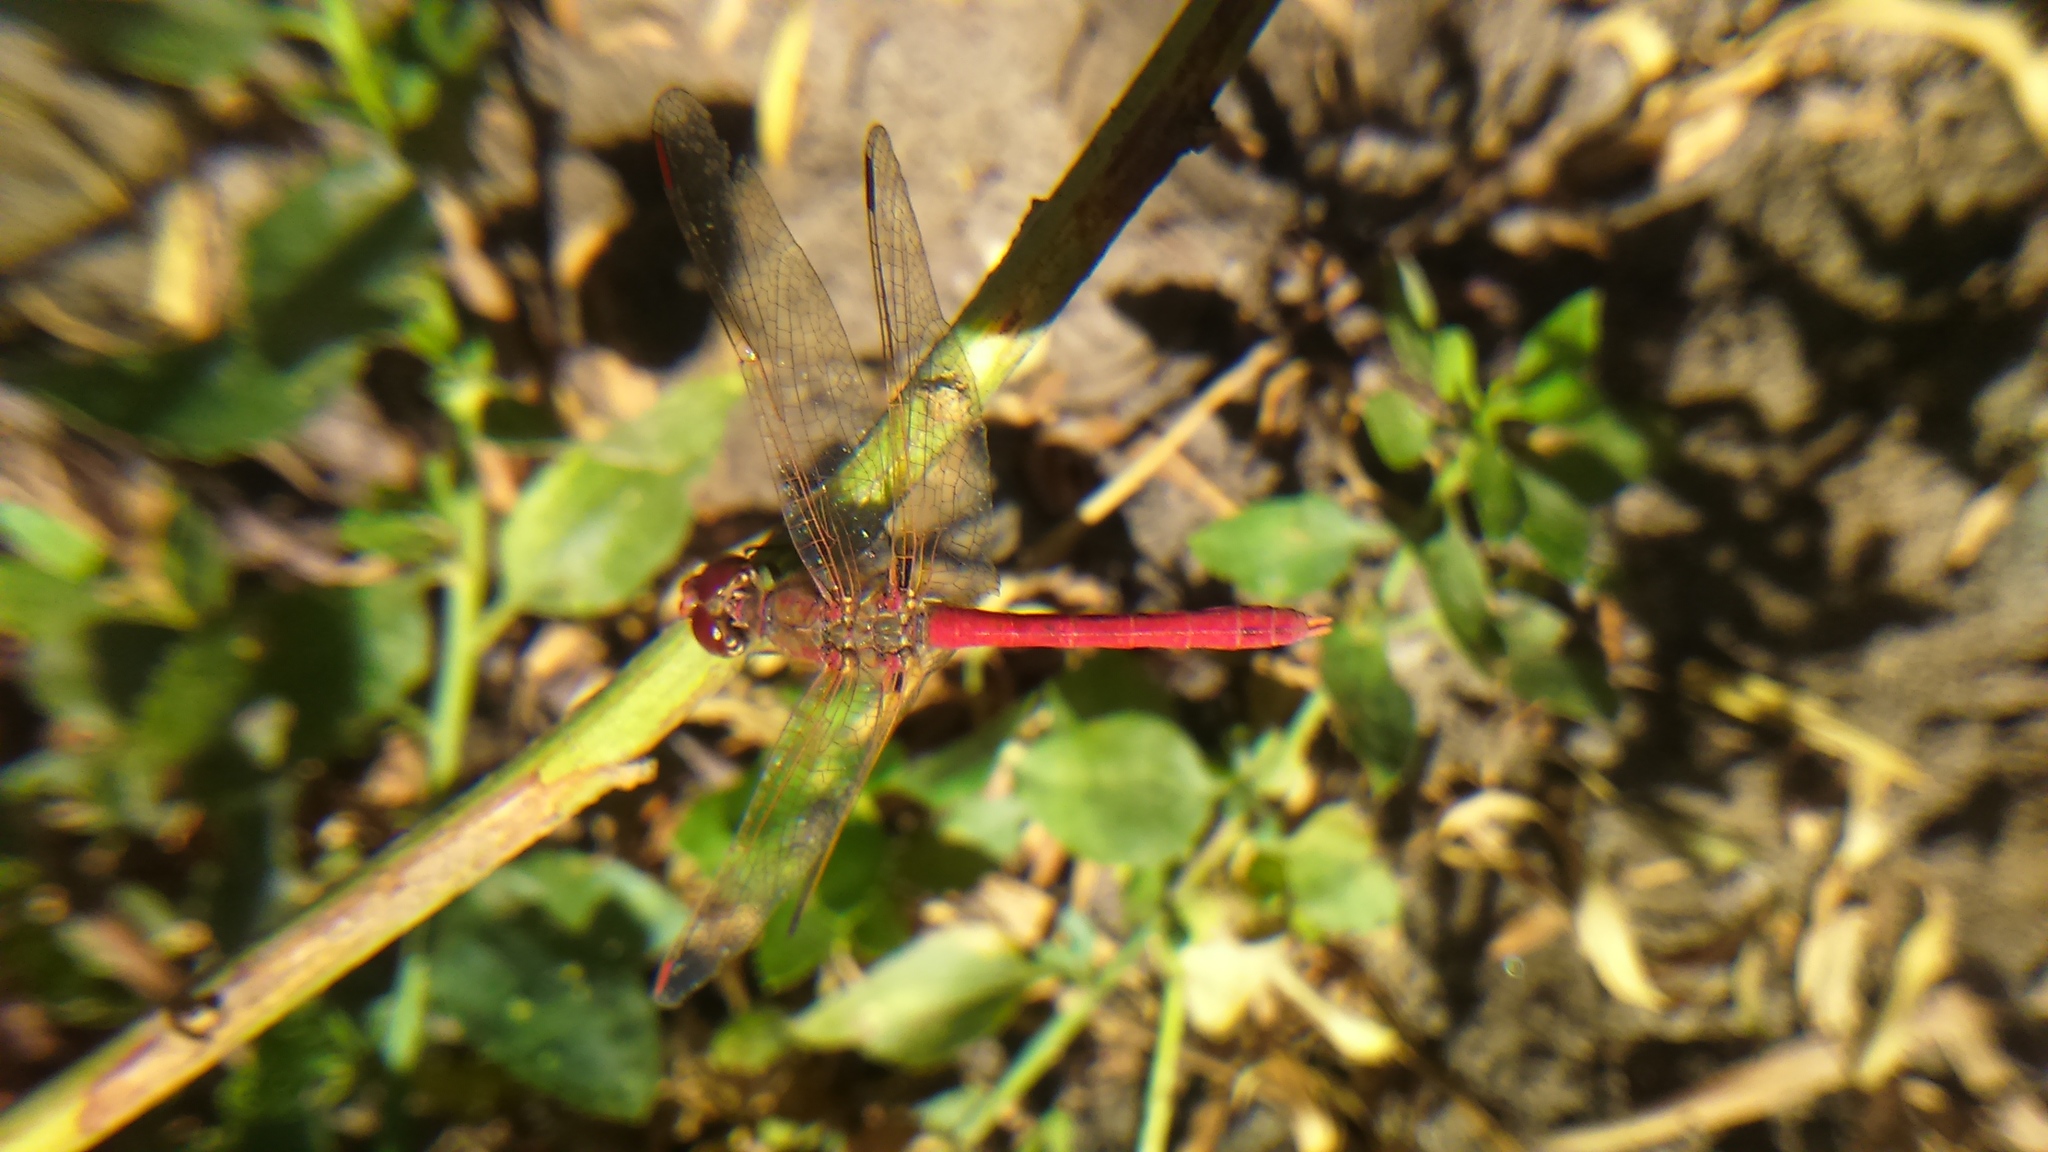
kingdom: Animalia
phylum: Arthropoda
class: Insecta
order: Odonata
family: Libellulidae
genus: Sympetrum
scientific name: Sympetrum gilvum
